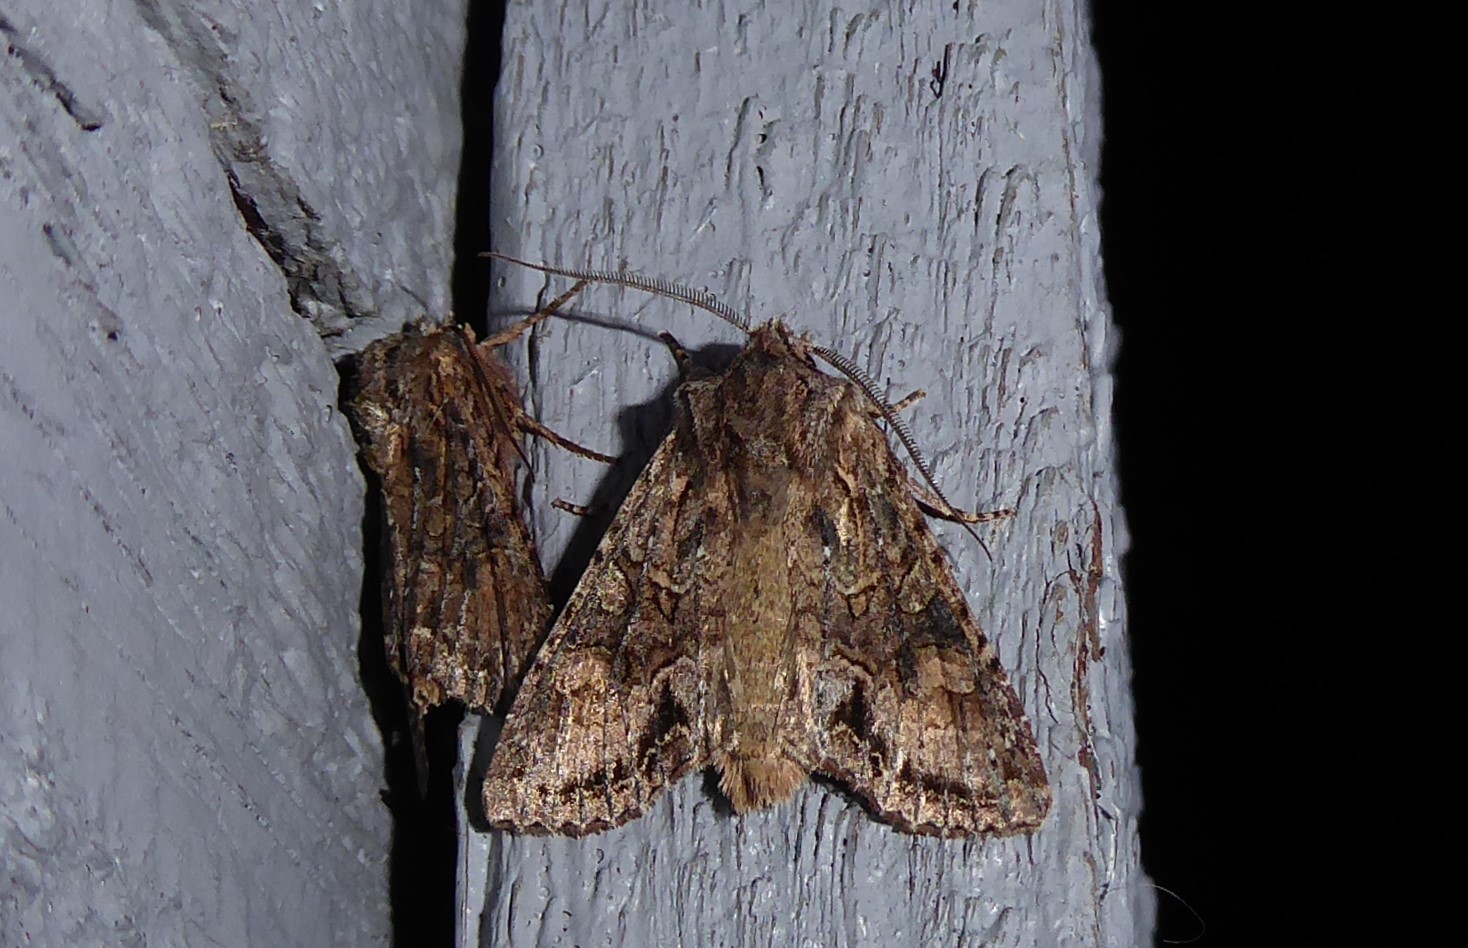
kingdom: Animalia
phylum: Arthropoda
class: Insecta
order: Lepidoptera
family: Noctuidae
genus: Ichneutica
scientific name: Ichneutica mutans
